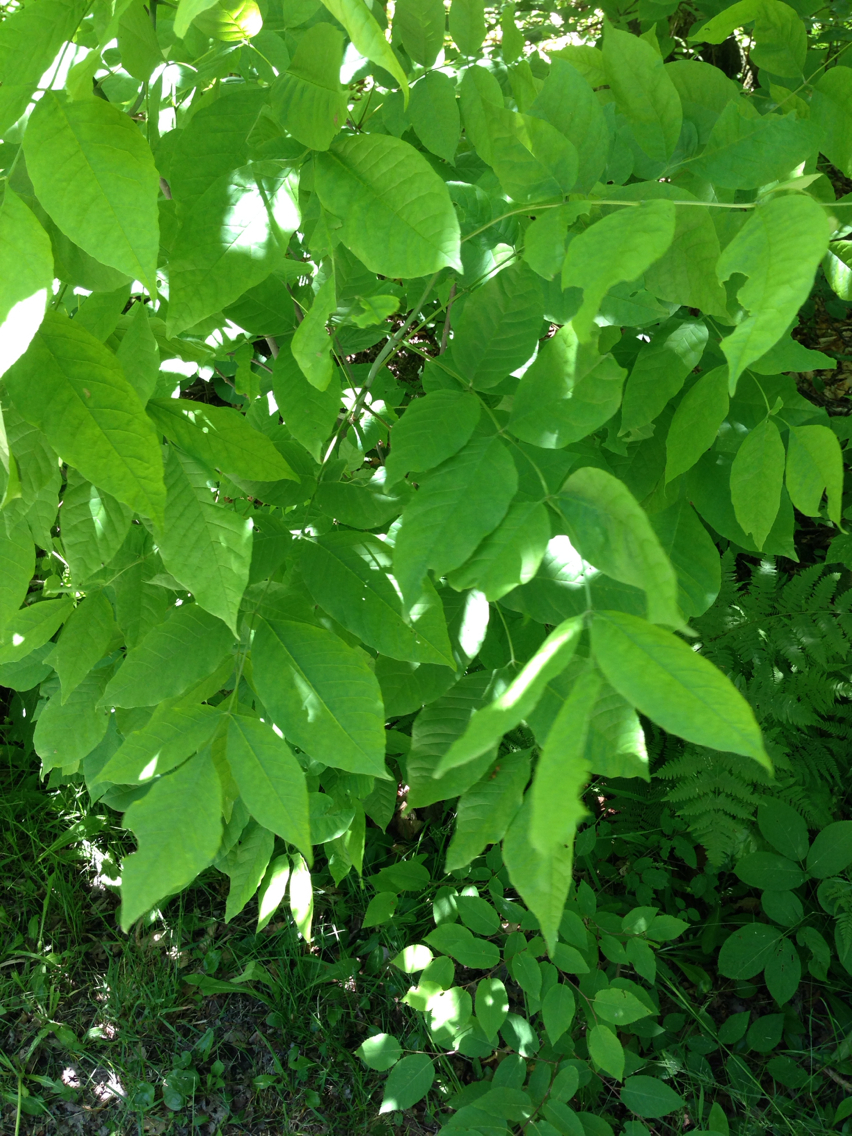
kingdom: Plantae
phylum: Tracheophyta
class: Magnoliopsida
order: Lamiales
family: Oleaceae
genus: Fraxinus
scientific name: Fraxinus americana
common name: White ash
